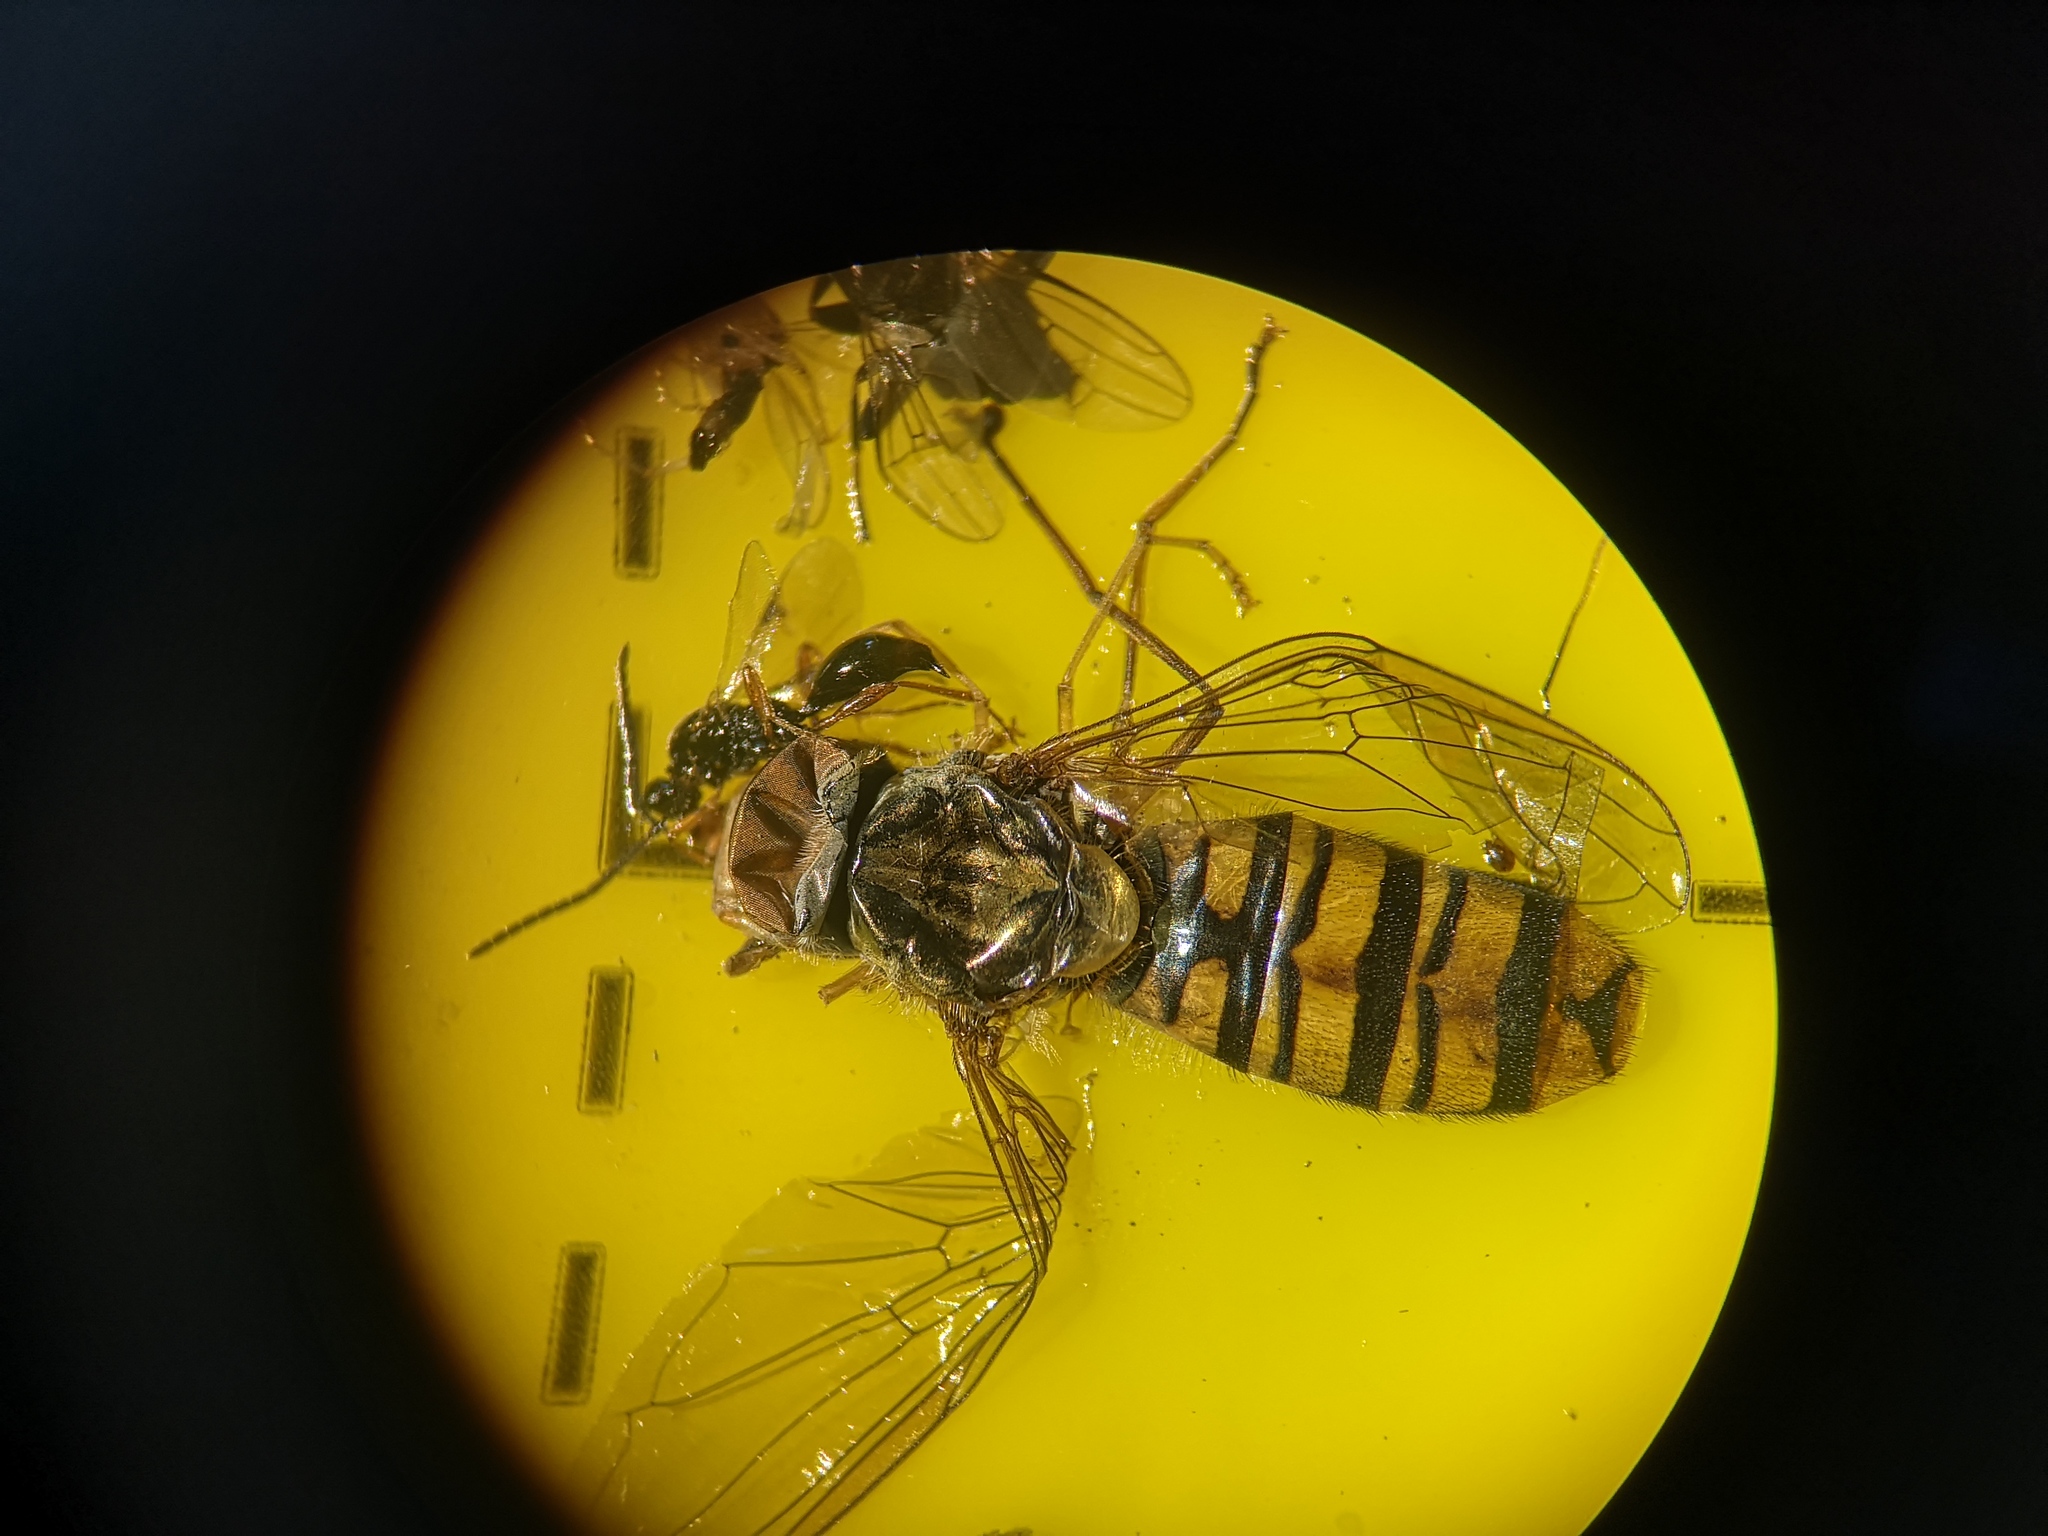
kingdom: Animalia
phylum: Arthropoda
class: Insecta
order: Diptera
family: Syrphidae
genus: Episyrphus
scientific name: Episyrphus balteatus
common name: Marmalade hoverfly
